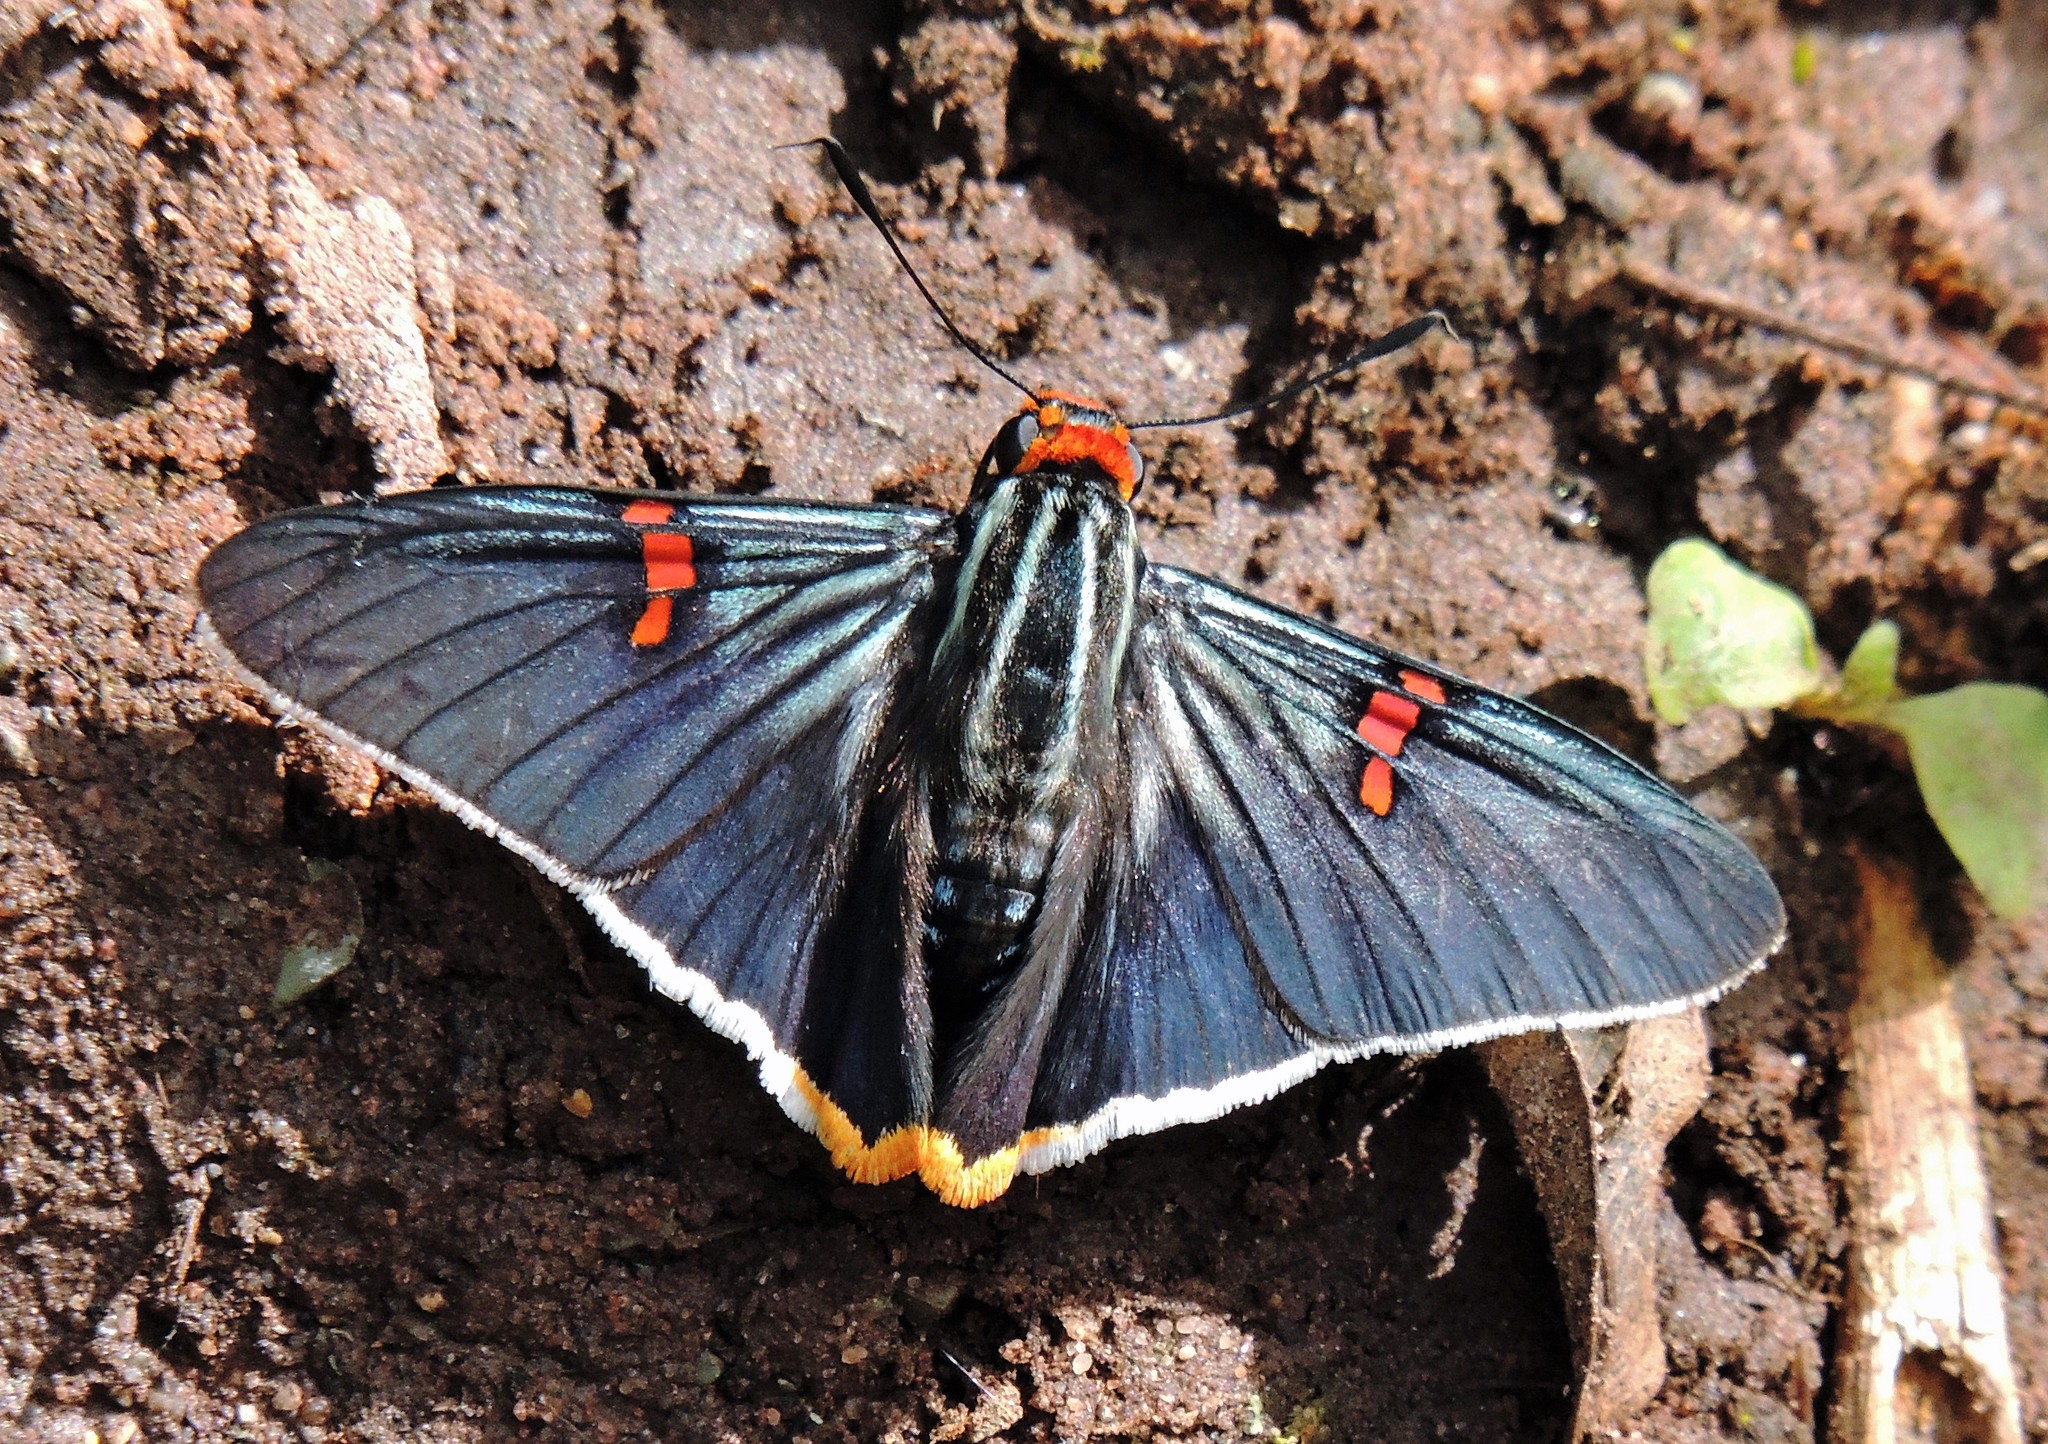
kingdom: Animalia
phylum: Arthropoda
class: Insecta
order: Lepidoptera
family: Hesperiidae
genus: Phocides
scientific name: Phocides polybius
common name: Guava skipper
